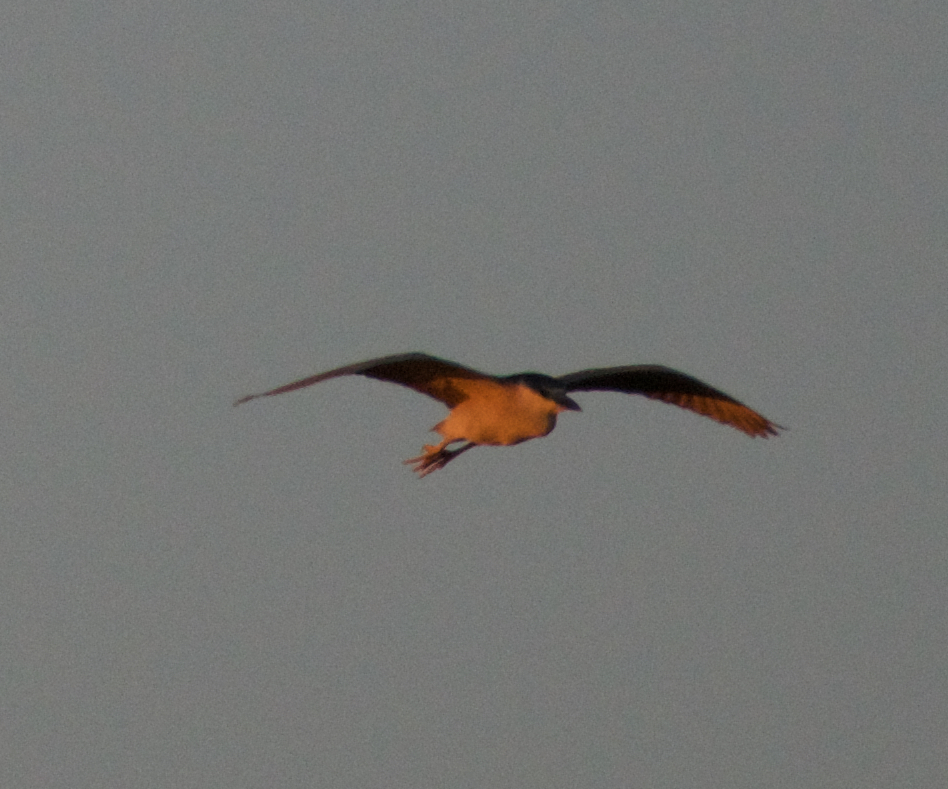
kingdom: Animalia
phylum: Chordata
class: Aves
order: Pelecaniformes
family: Ardeidae
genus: Nycticorax
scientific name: Nycticorax nycticorax
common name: Black-crowned night heron
